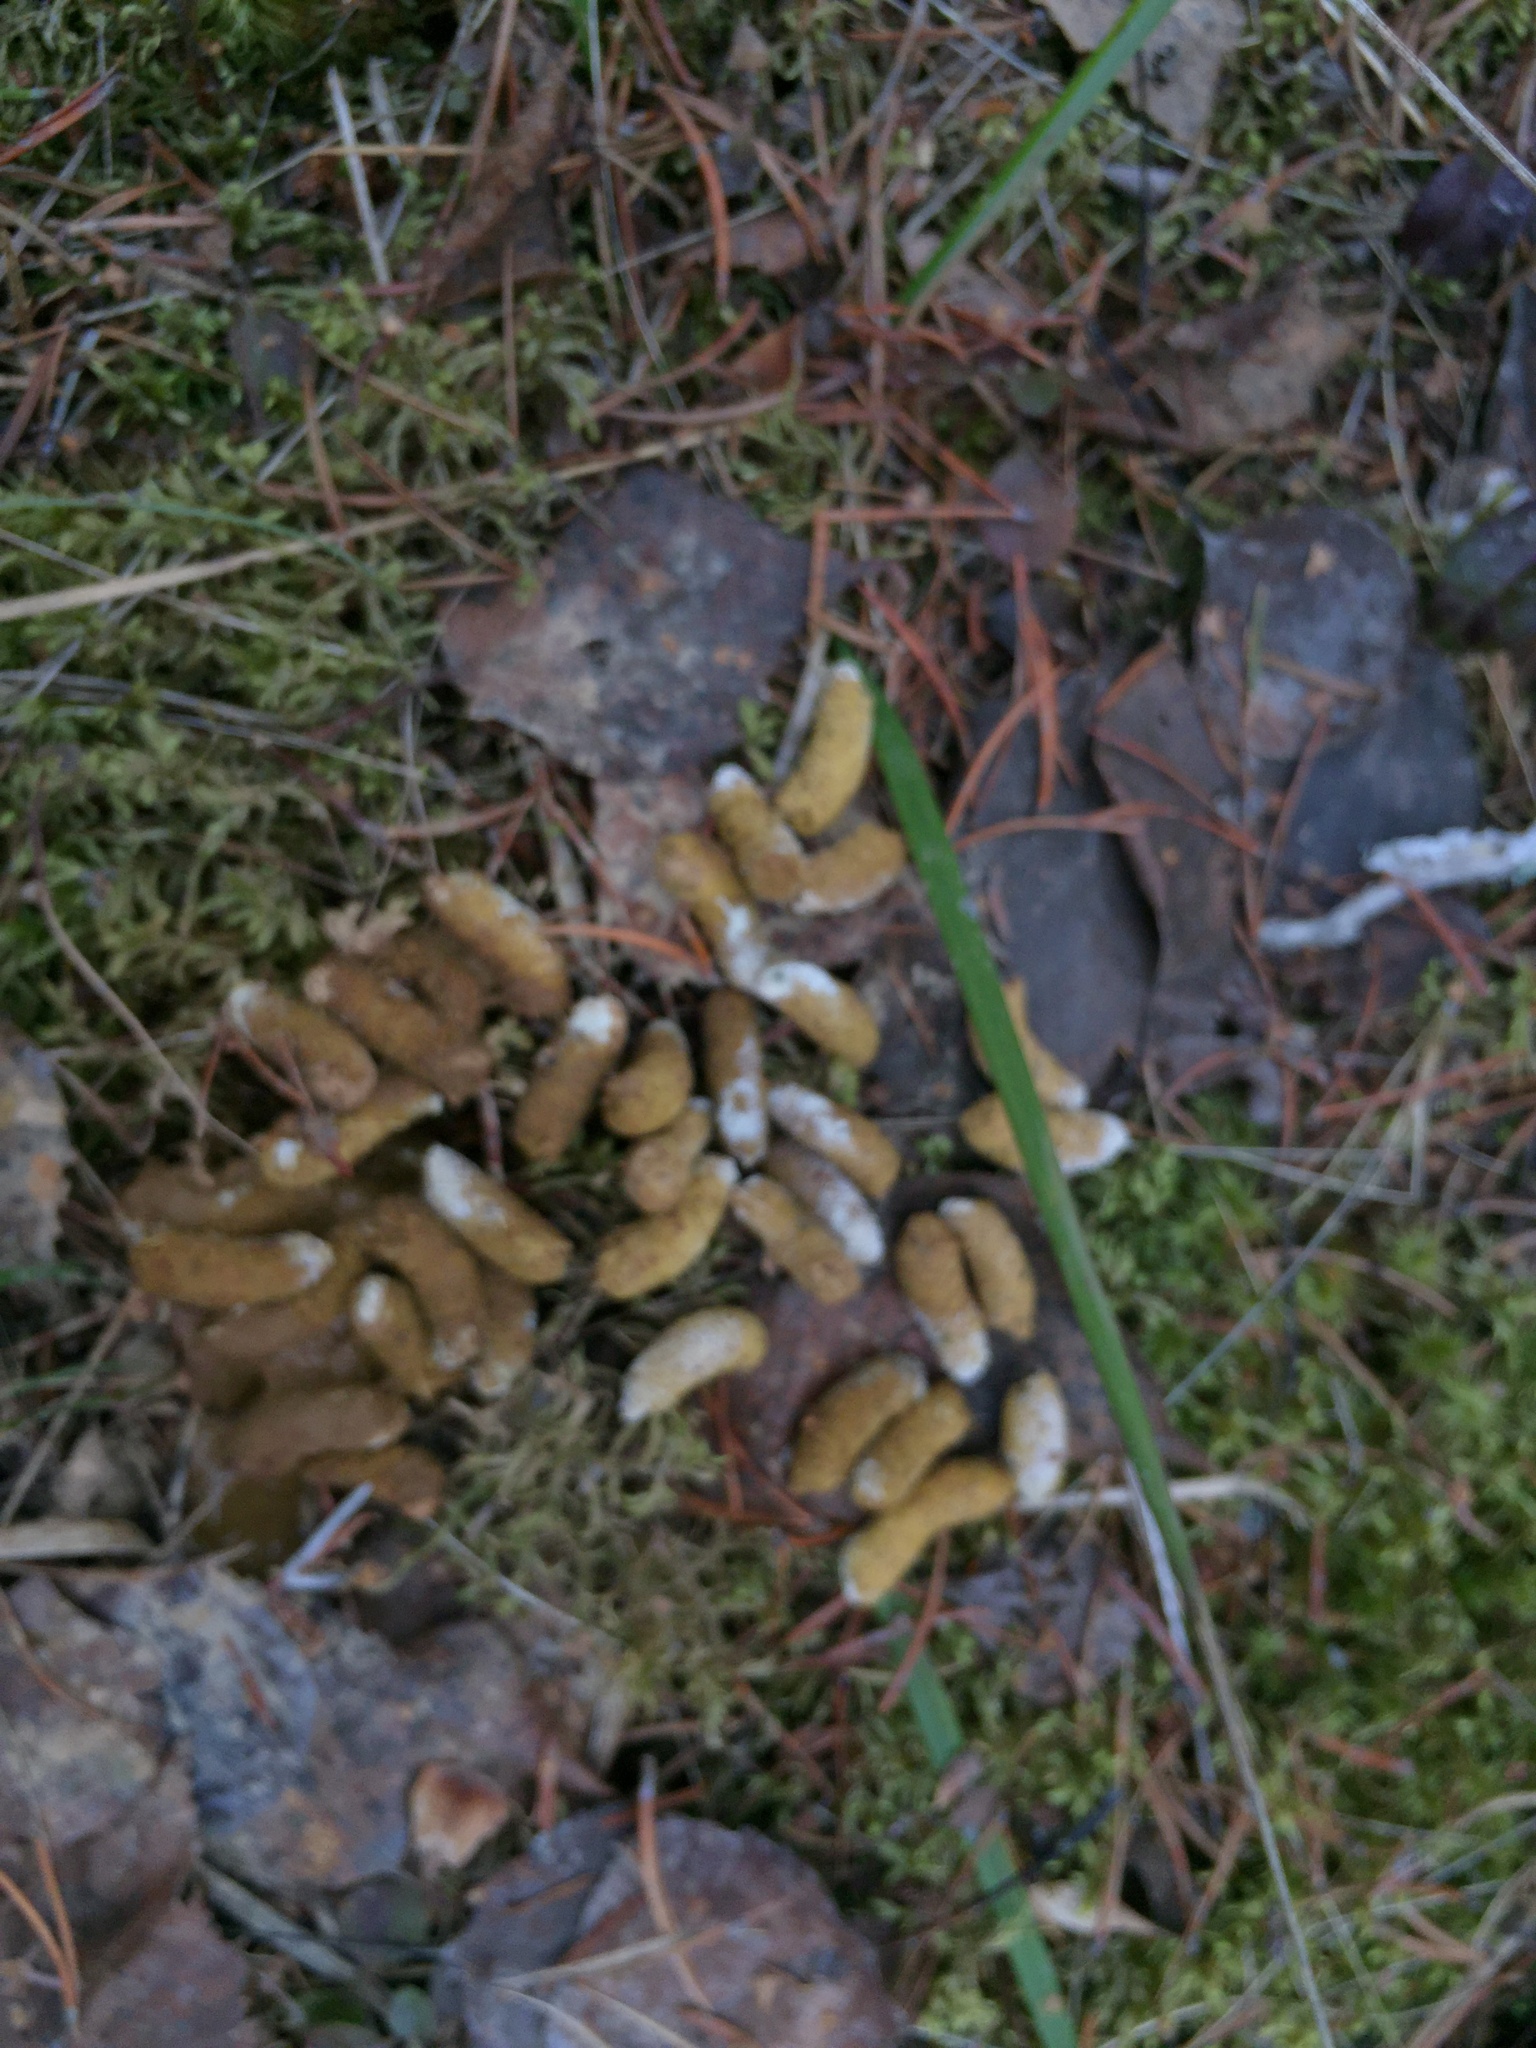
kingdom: Animalia
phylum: Chordata
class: Aves
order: Galliformes
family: Phasianidae
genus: Bonasa
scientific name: Bonasa umbellus
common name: Ruffed grouse
